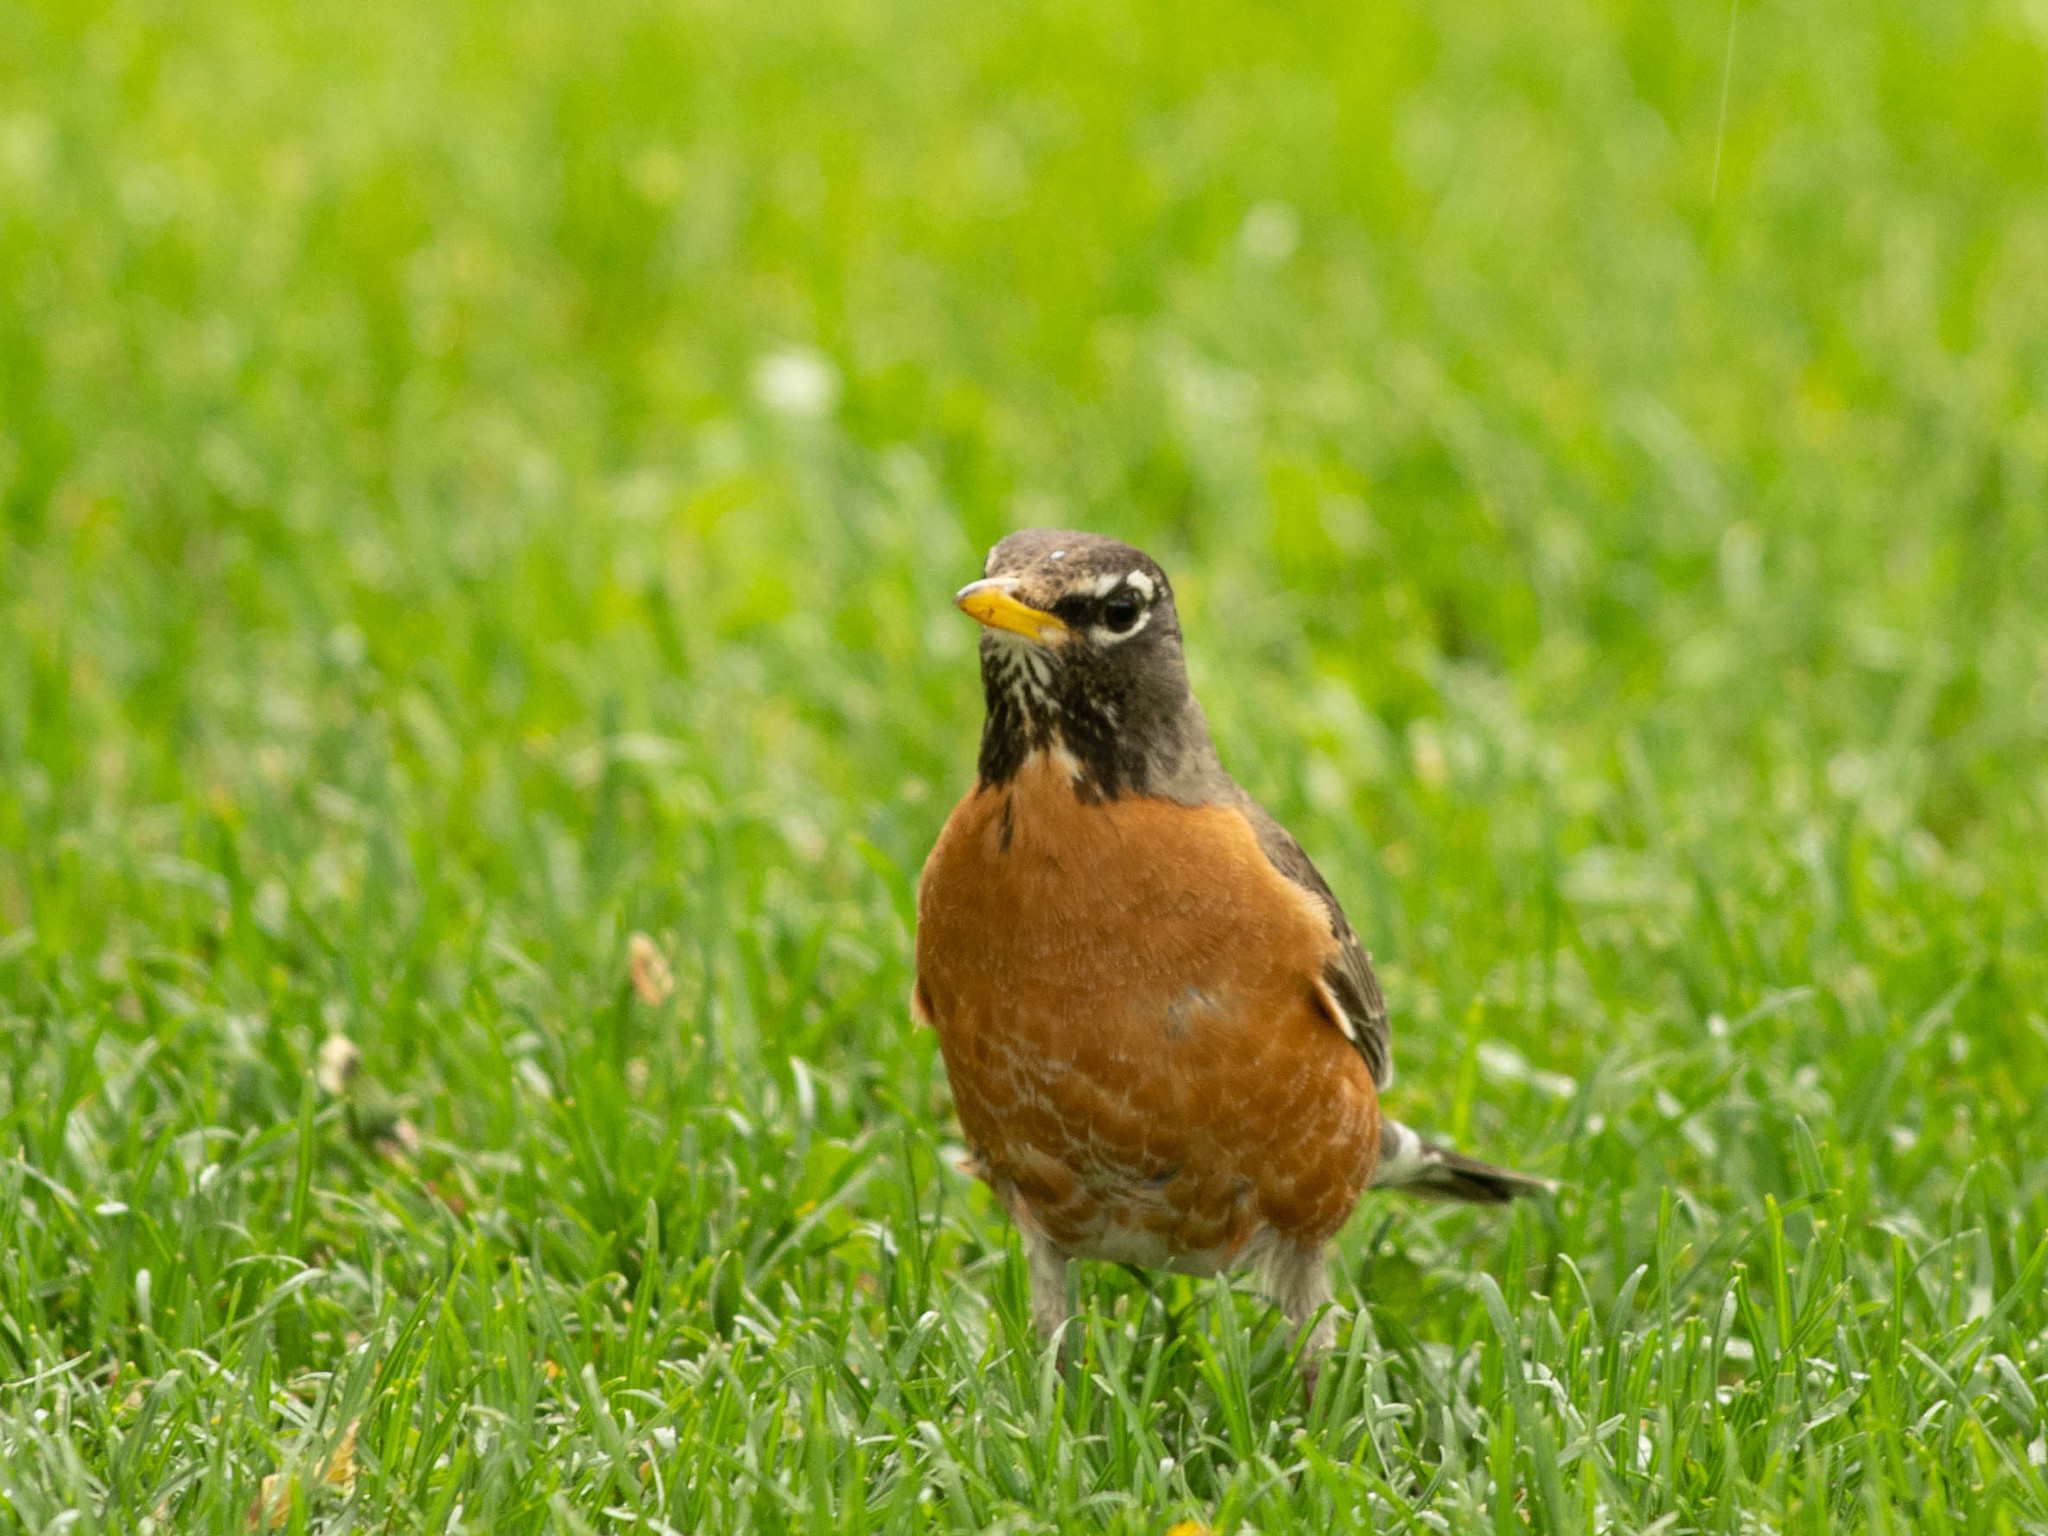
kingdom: Animalia
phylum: Chordata
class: Aves
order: Passeriformes
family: Turdidae
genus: Turdus
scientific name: Turdus migratorius
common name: American robin
